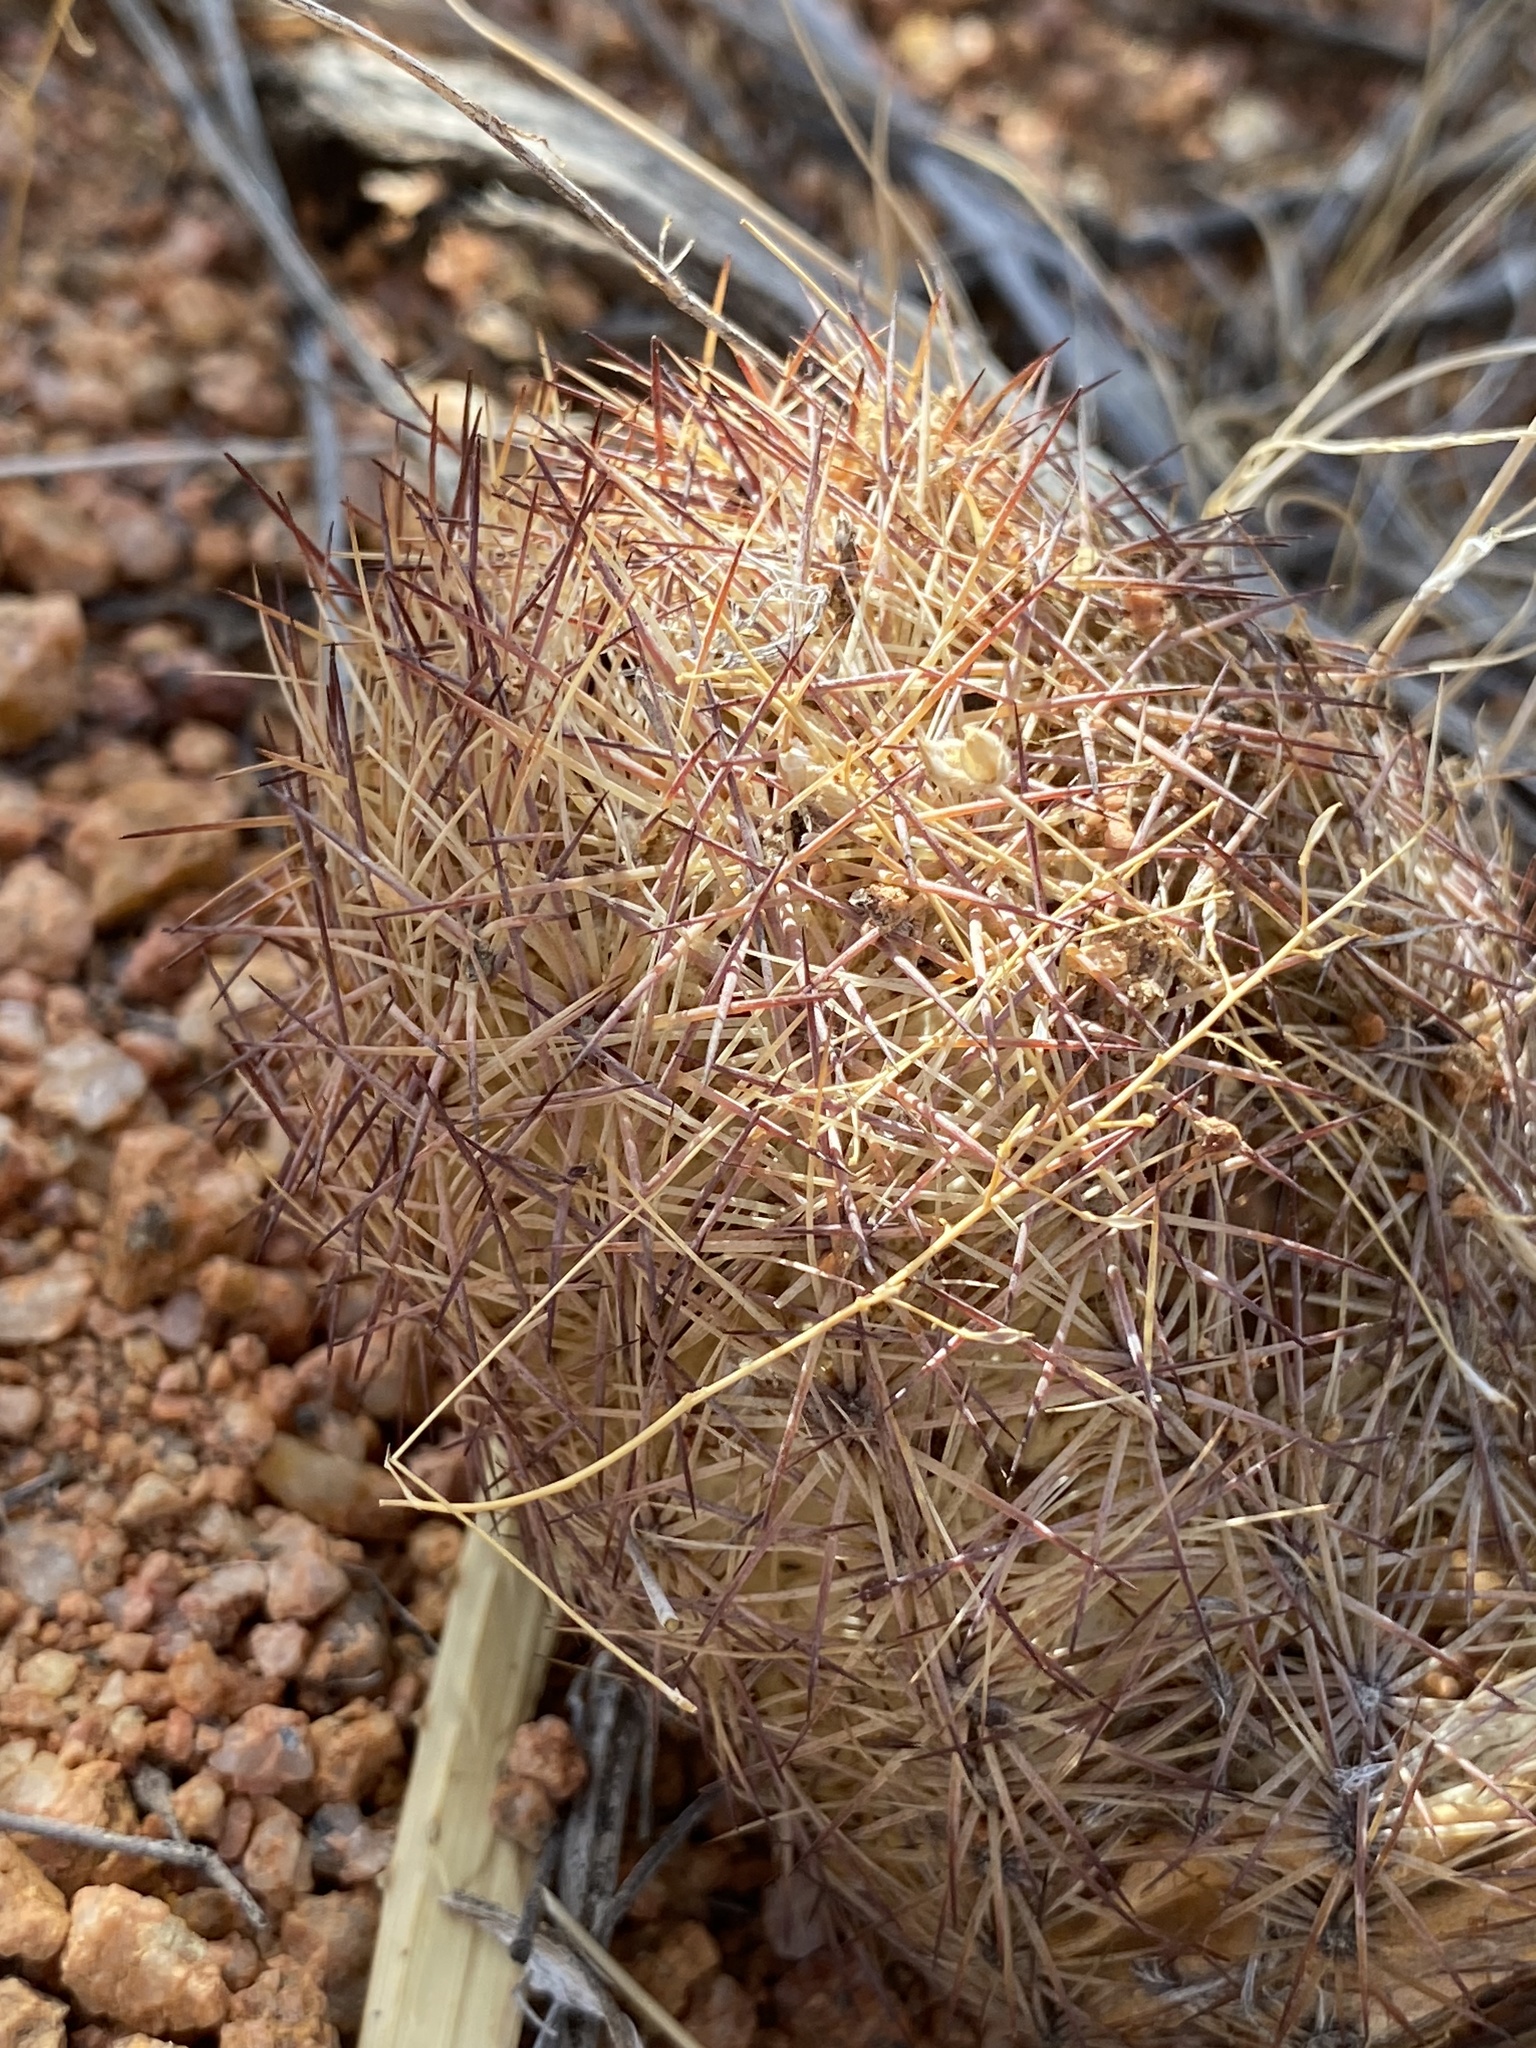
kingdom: Plantae
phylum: Tracheophyta
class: Magnoliopsida
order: Caryophyllales
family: Cactaceae
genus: Sclerocactus
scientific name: Sclerocactus intertextus
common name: White fish-hook cactus
